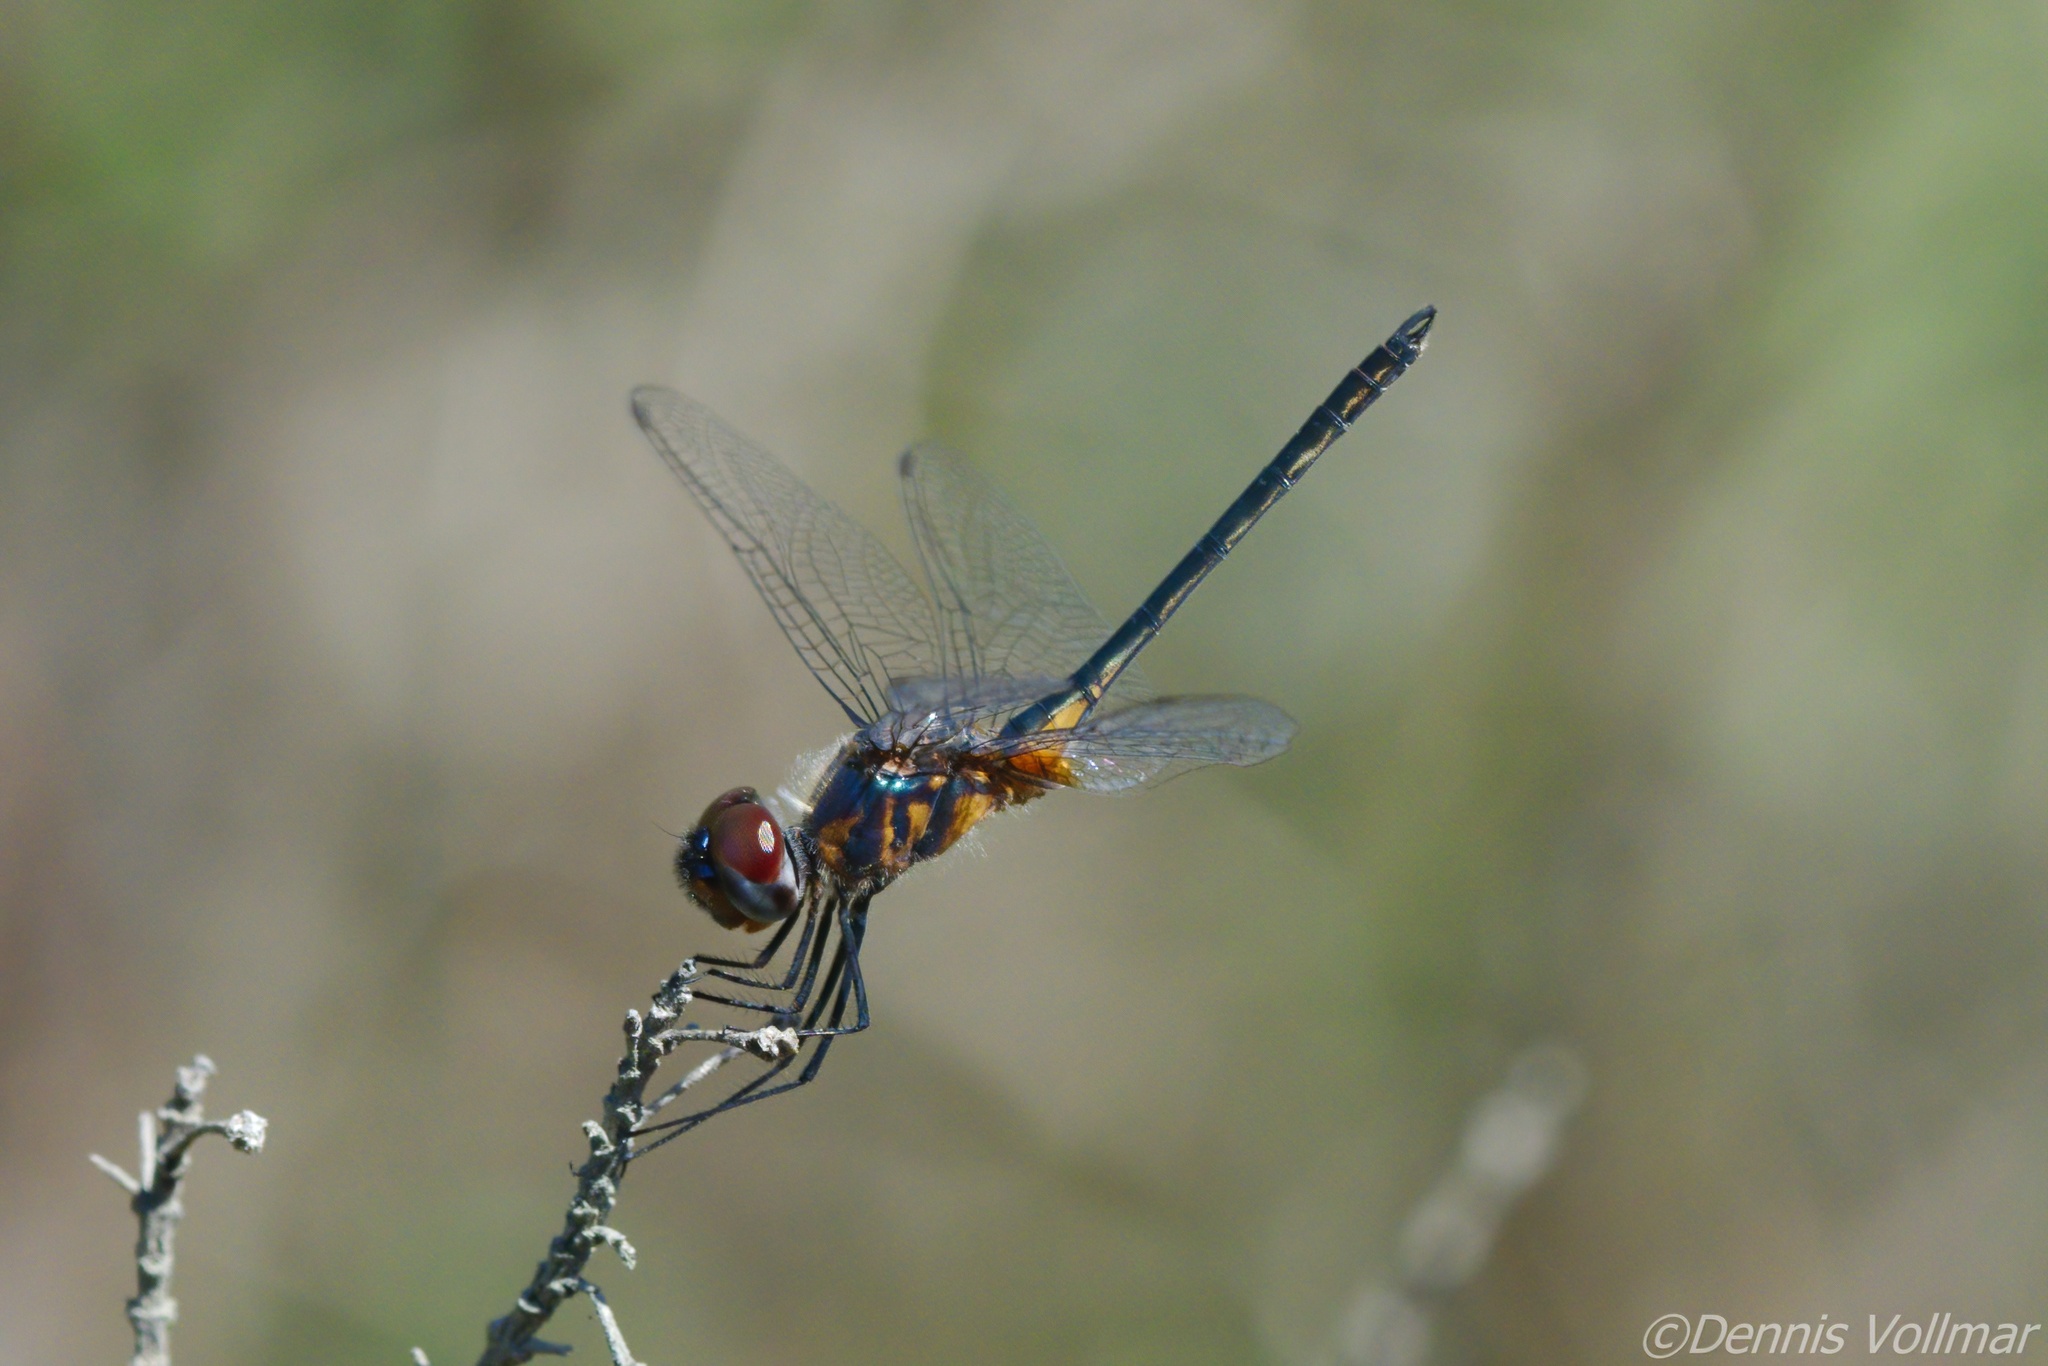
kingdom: Animalia
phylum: Arthropoda
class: Insecta
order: Odonata
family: Libellulidae
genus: Idiataphe
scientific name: Idiataphe cubensis
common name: Metallic pennant
